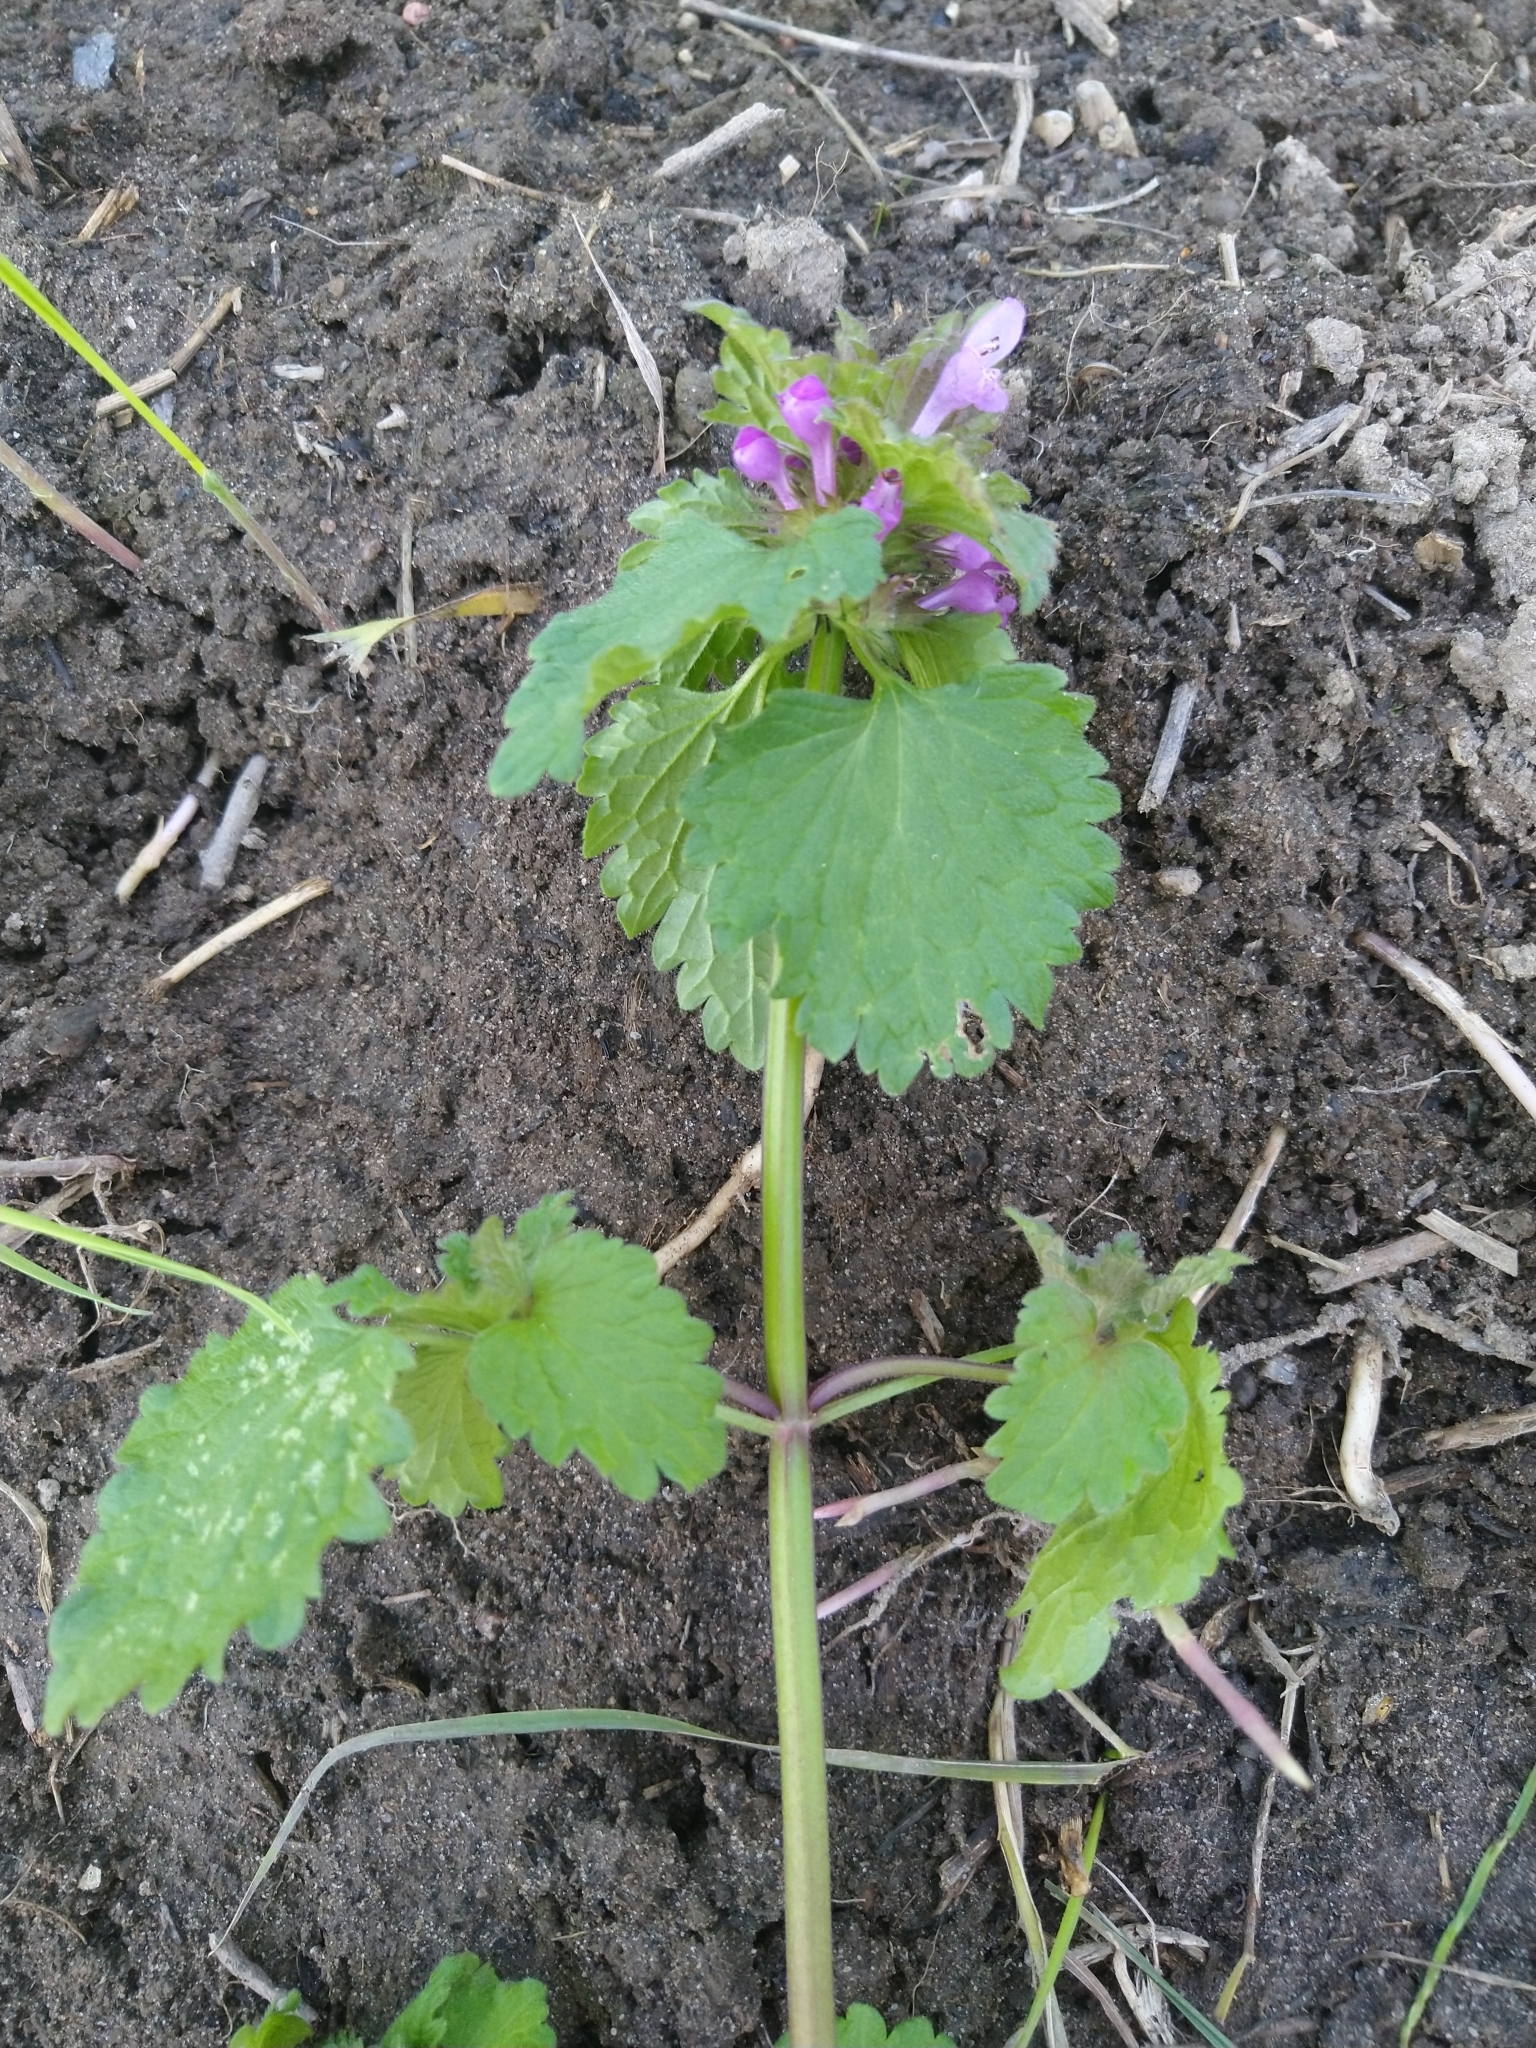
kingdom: Plantae
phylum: Tracheophyta
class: Magnoliopsida
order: Lamiales
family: Lamiaceae
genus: Lamium
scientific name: Lamium purpureum
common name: Red dead-nettle
